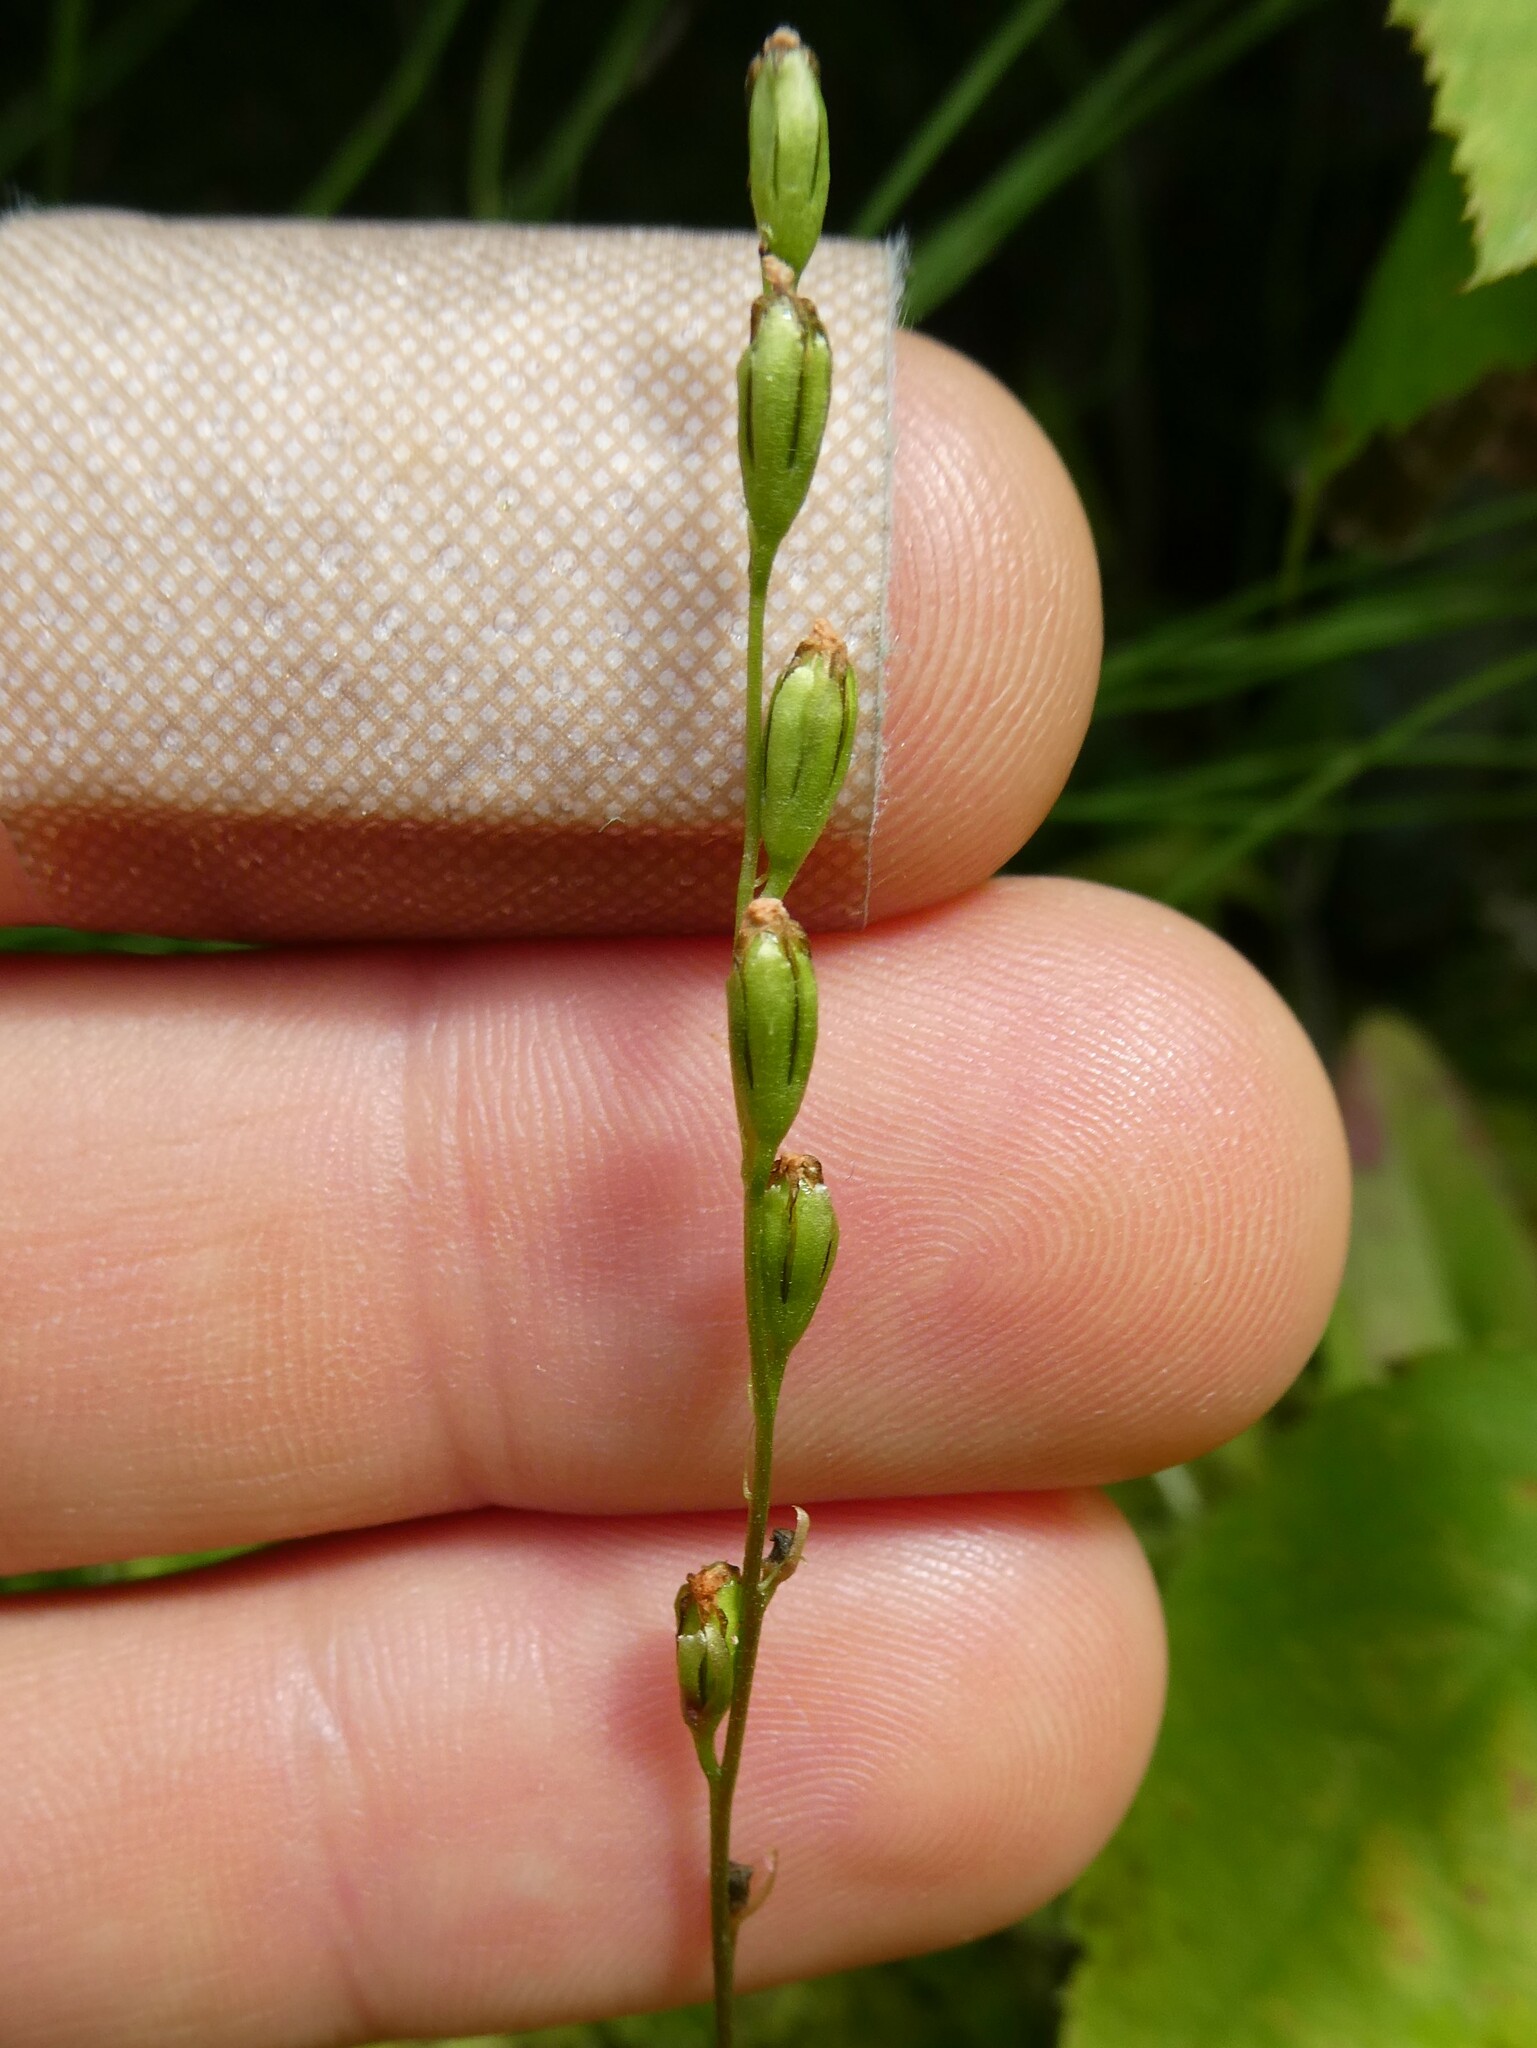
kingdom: Plantae
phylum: Tracheophyta
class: Magnoliopsida
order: Caryophyllales
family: Droseraceae
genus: Drosera
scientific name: Drosera rotundifolia
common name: Round-leaved sundew
